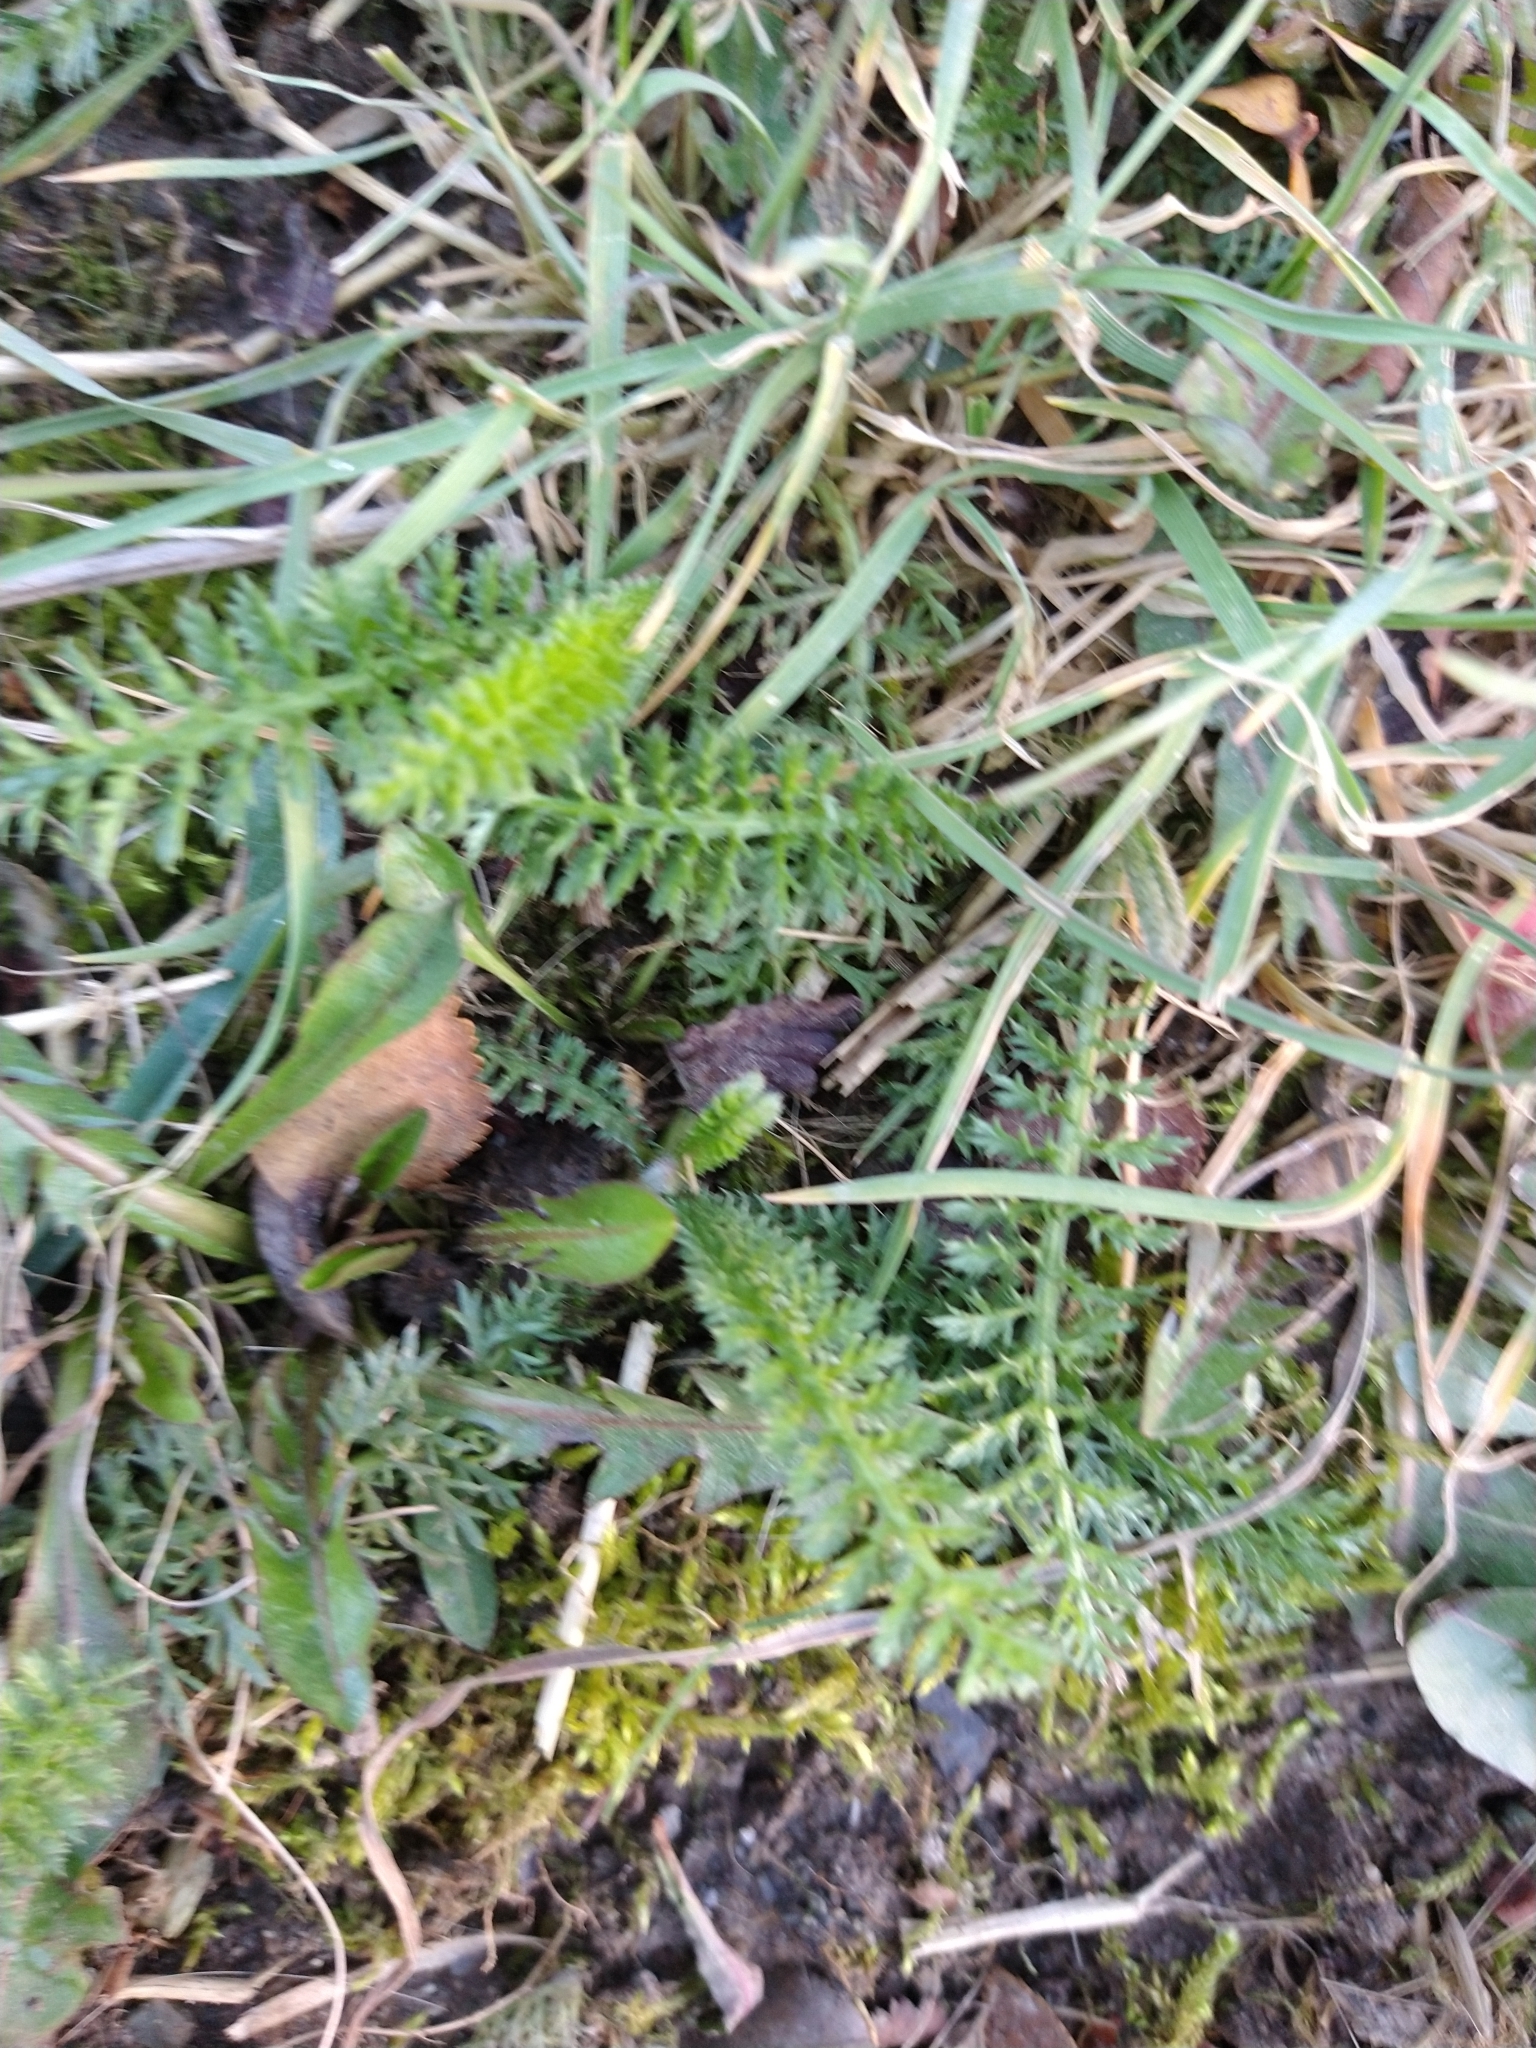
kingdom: Plantae
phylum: Tracheophyta
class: Magnoliopsida
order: Asterales
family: Asteraceae
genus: Achillea
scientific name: Achillea millefolium
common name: Yarrow
